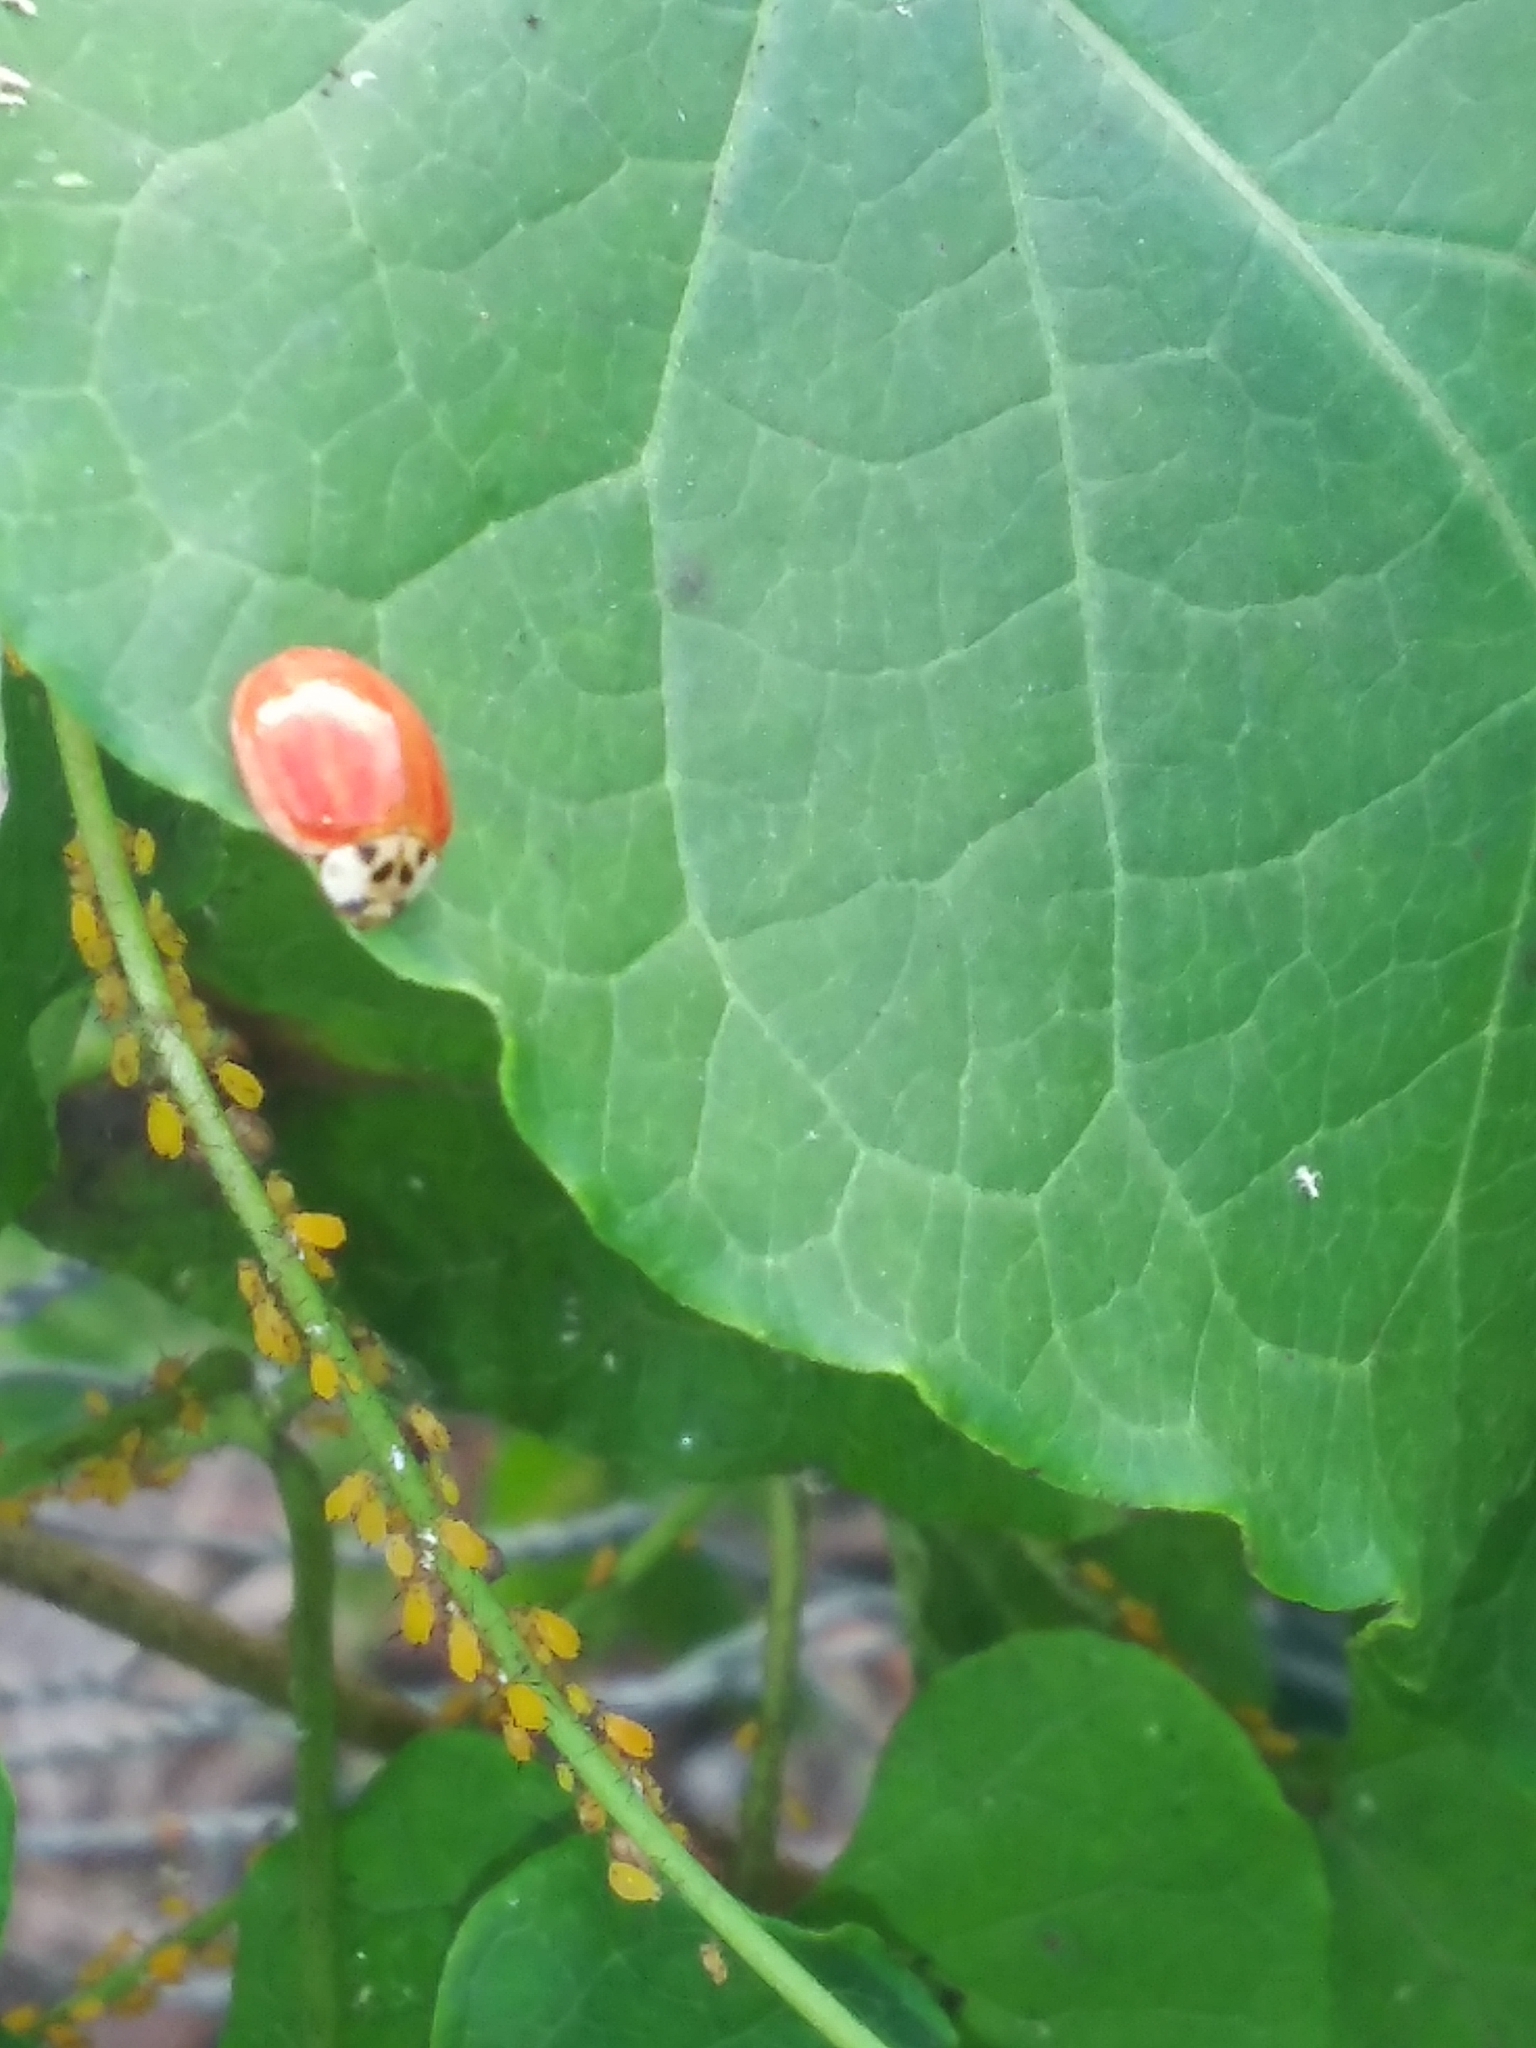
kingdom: Animalia
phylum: Arthropoda
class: Insecta
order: Coleoptera
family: Coccinellidae
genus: Harmonia
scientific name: Harmonia axyridis
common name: Harlequin ladybird
